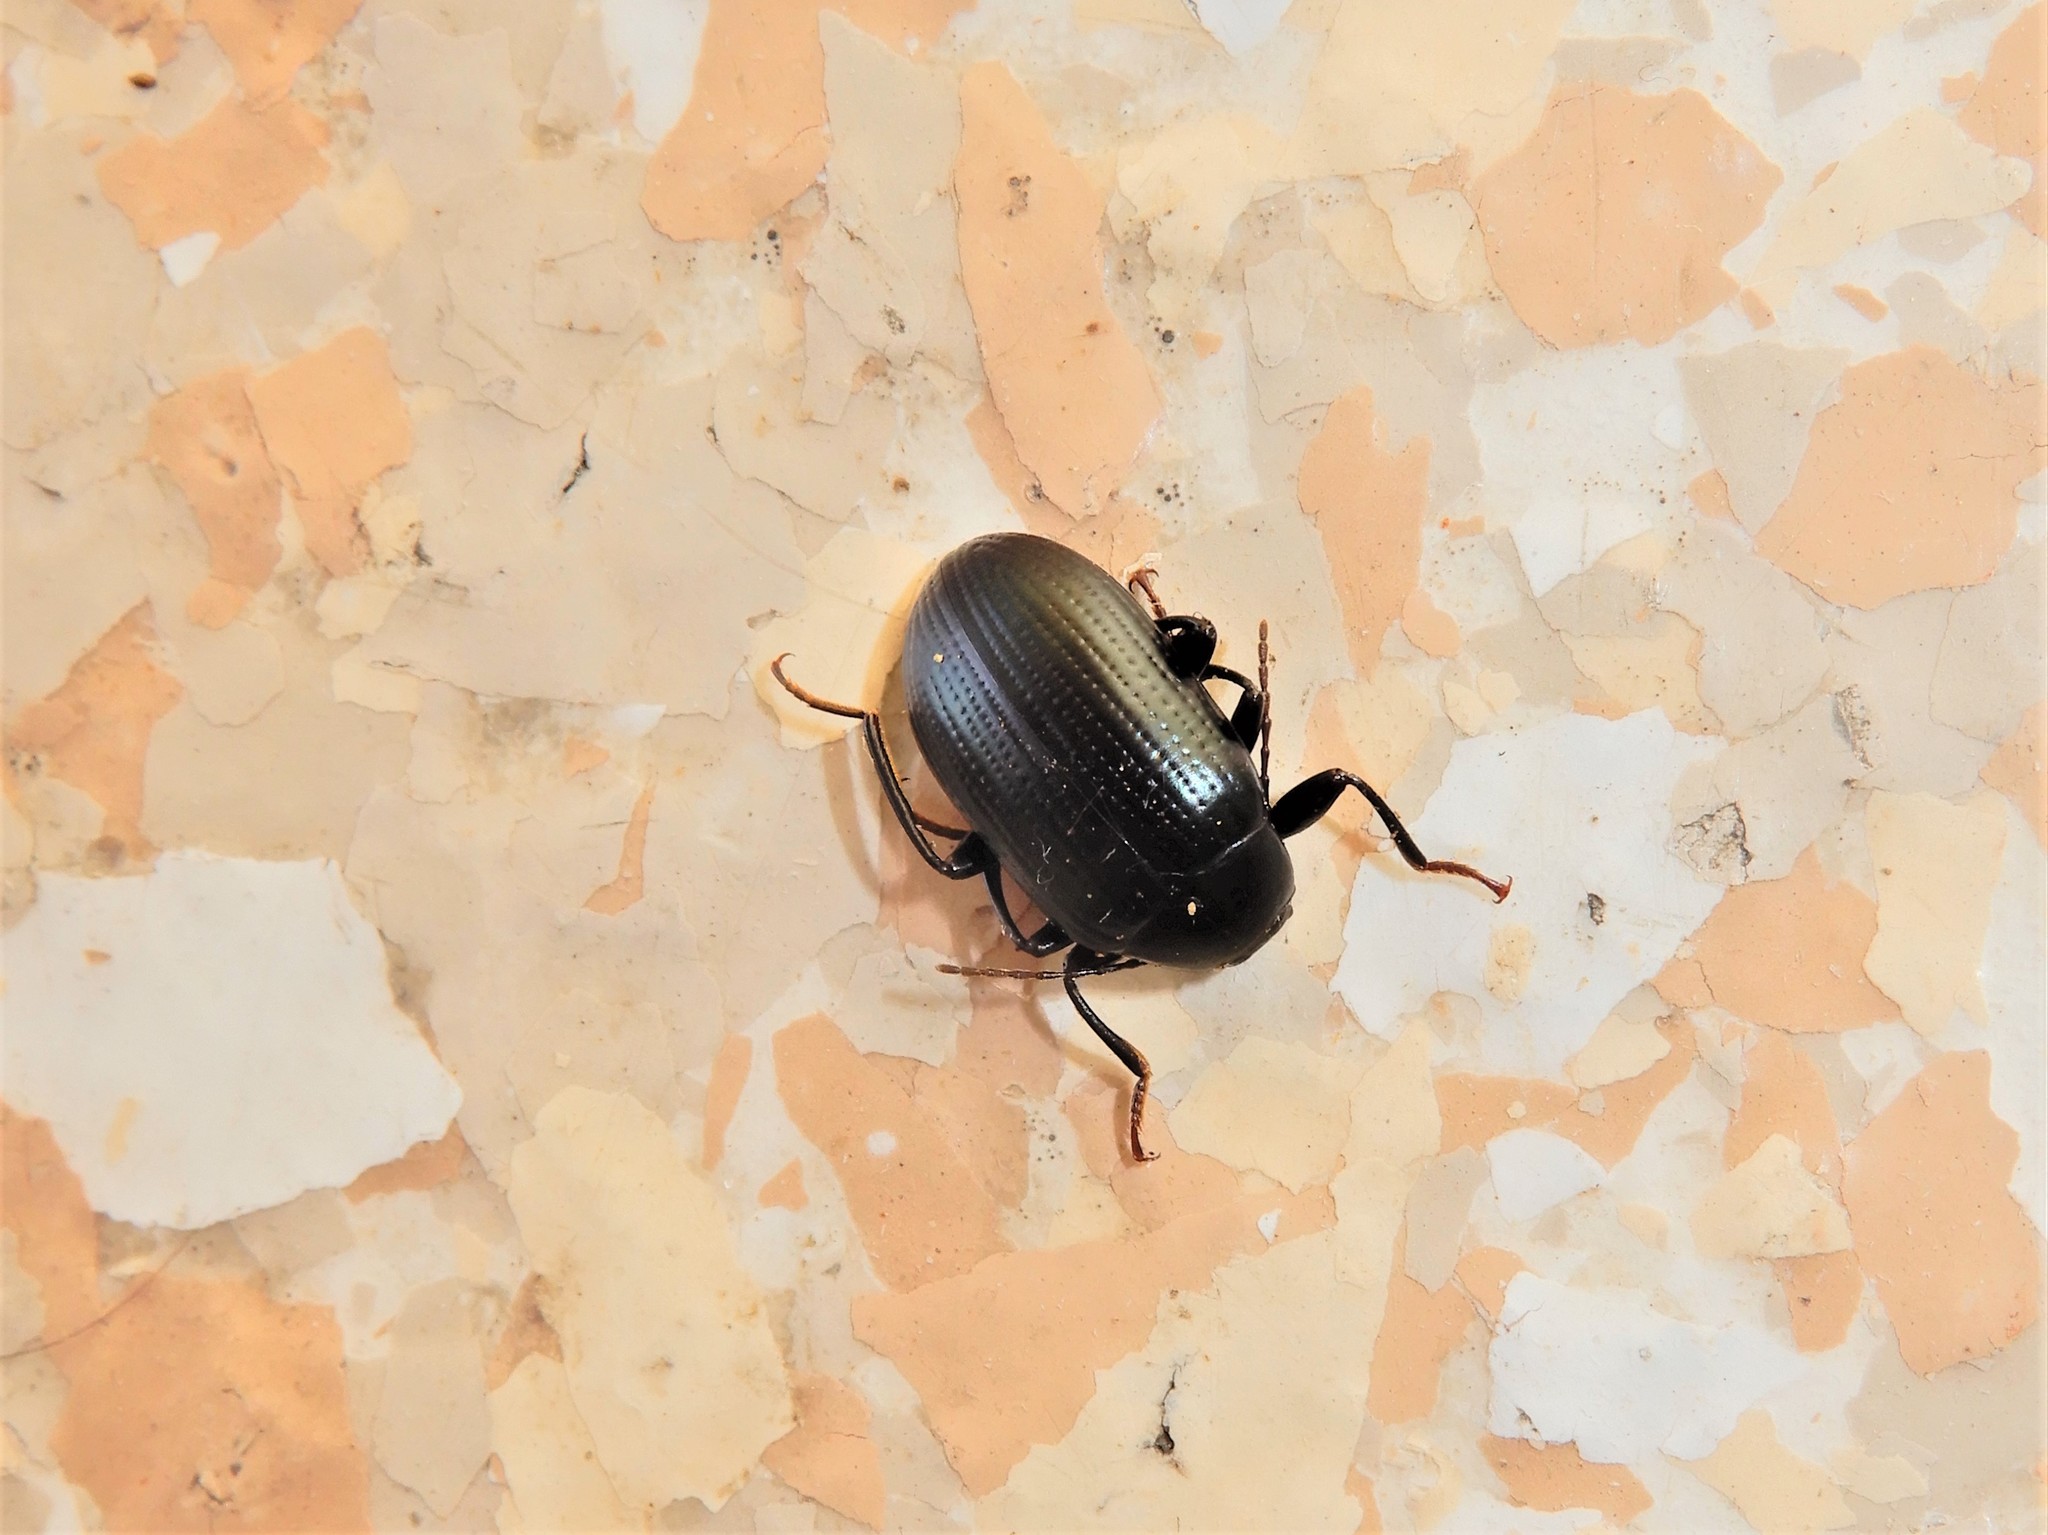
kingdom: Animalia
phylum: Arthropoda
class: Insecta
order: Coleoptera
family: Tenebrionidae
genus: Amarygmus
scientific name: Amarygmus
